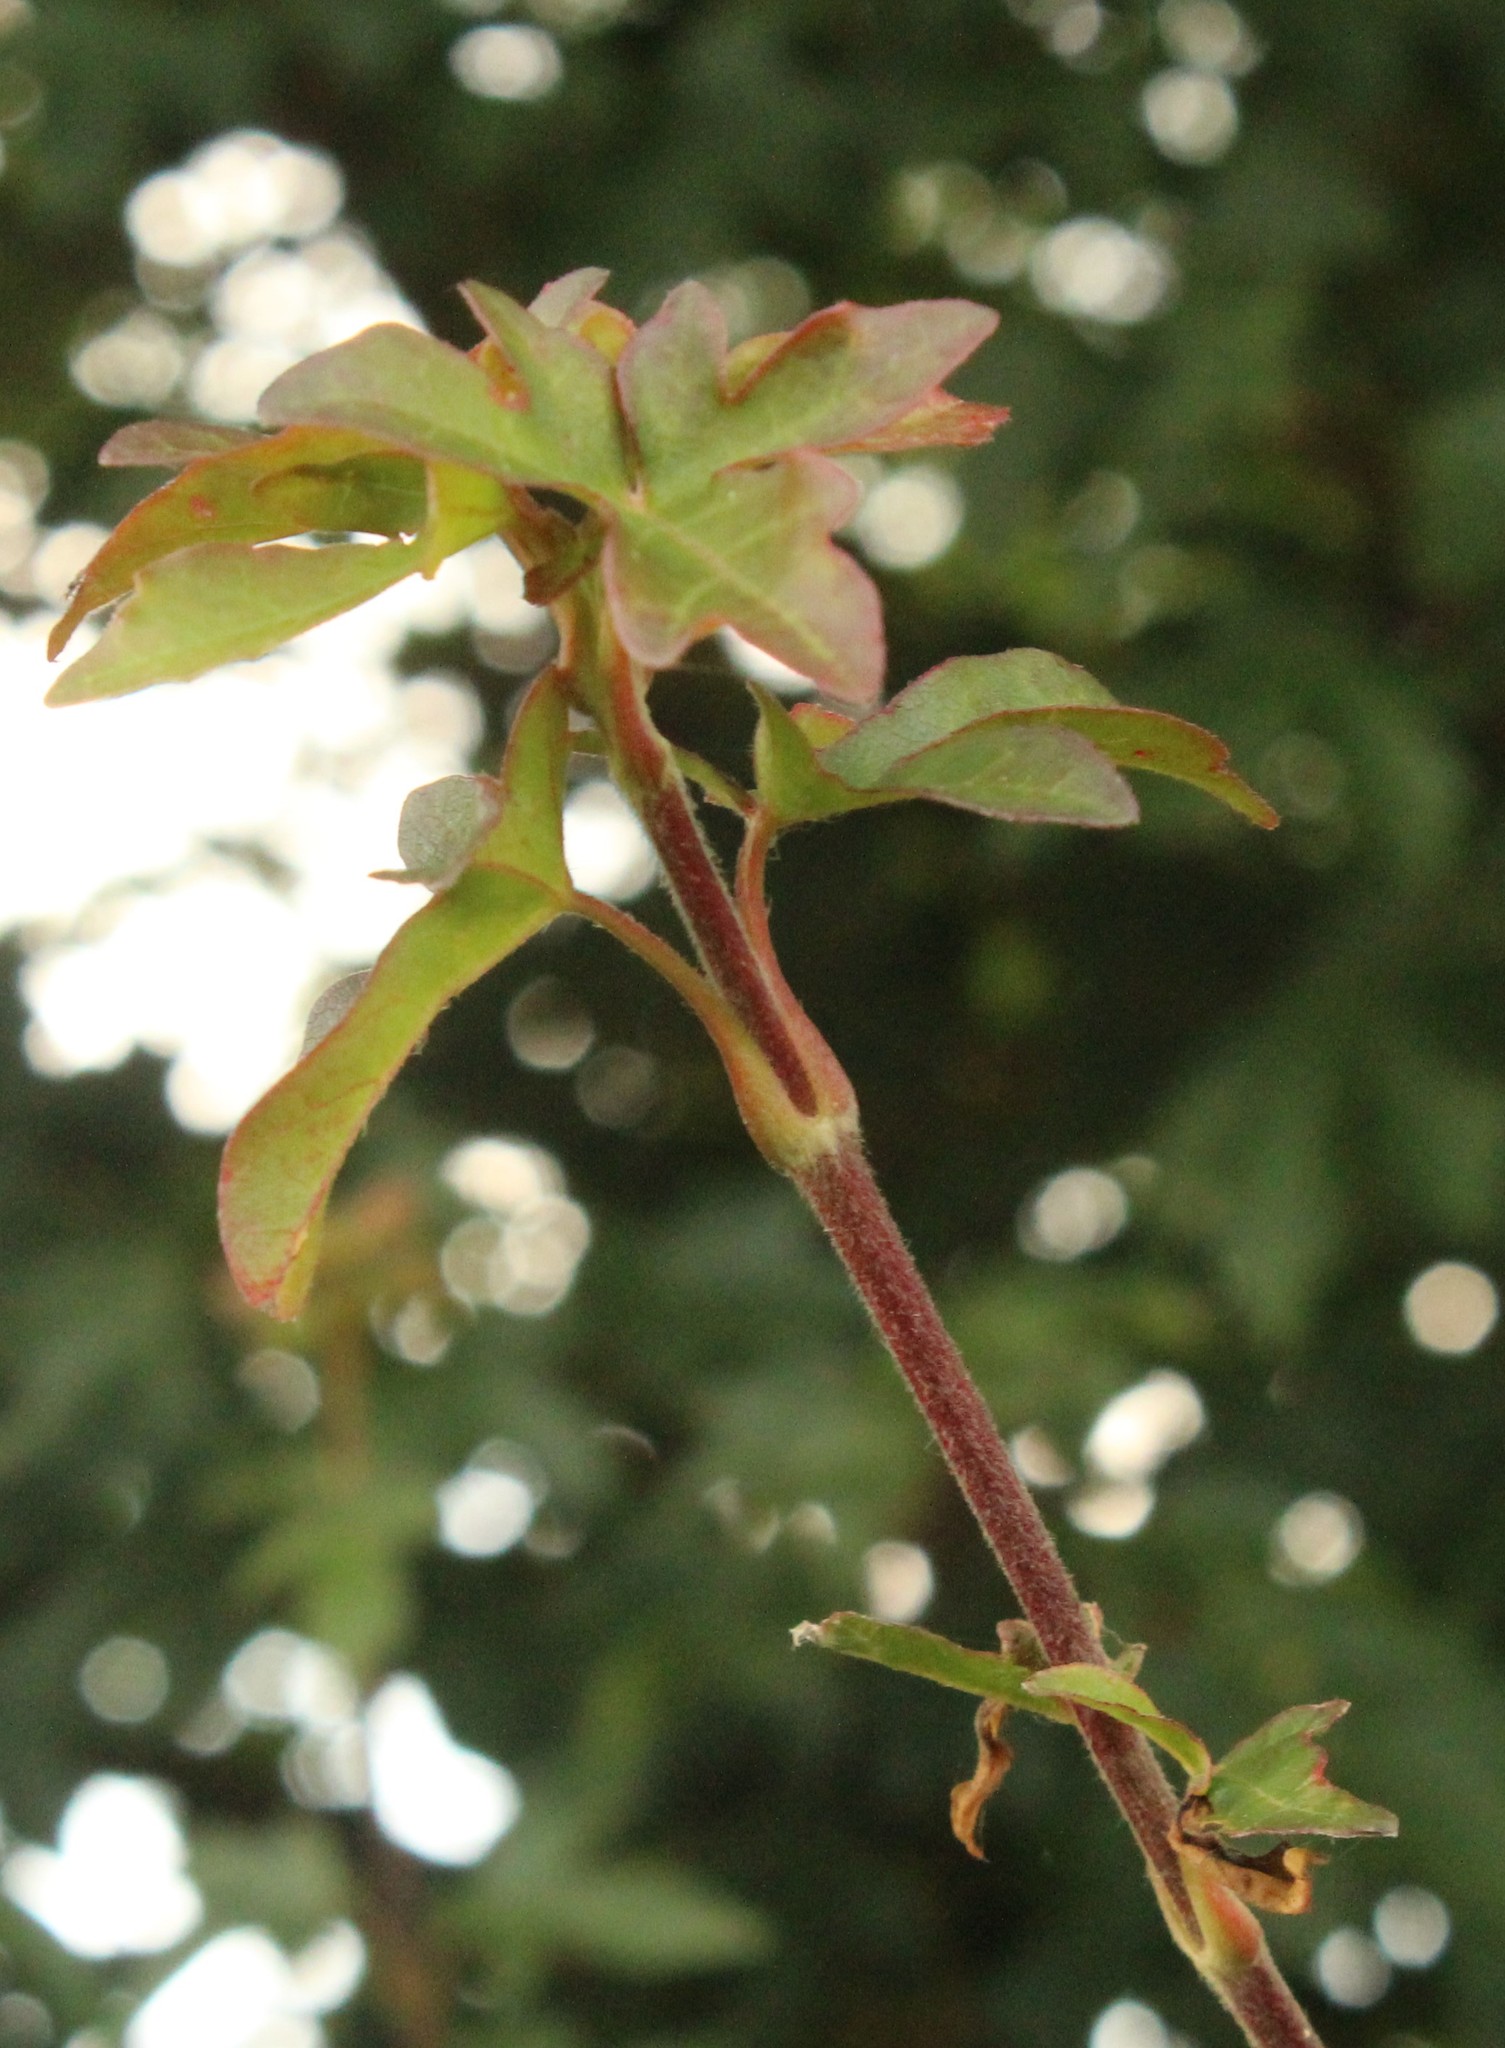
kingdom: Plantae
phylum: Tracheophyta
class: Magnoliopsida
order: Sapindales
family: Sapindaceae
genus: Acer
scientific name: Acer campestre
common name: Field maple
